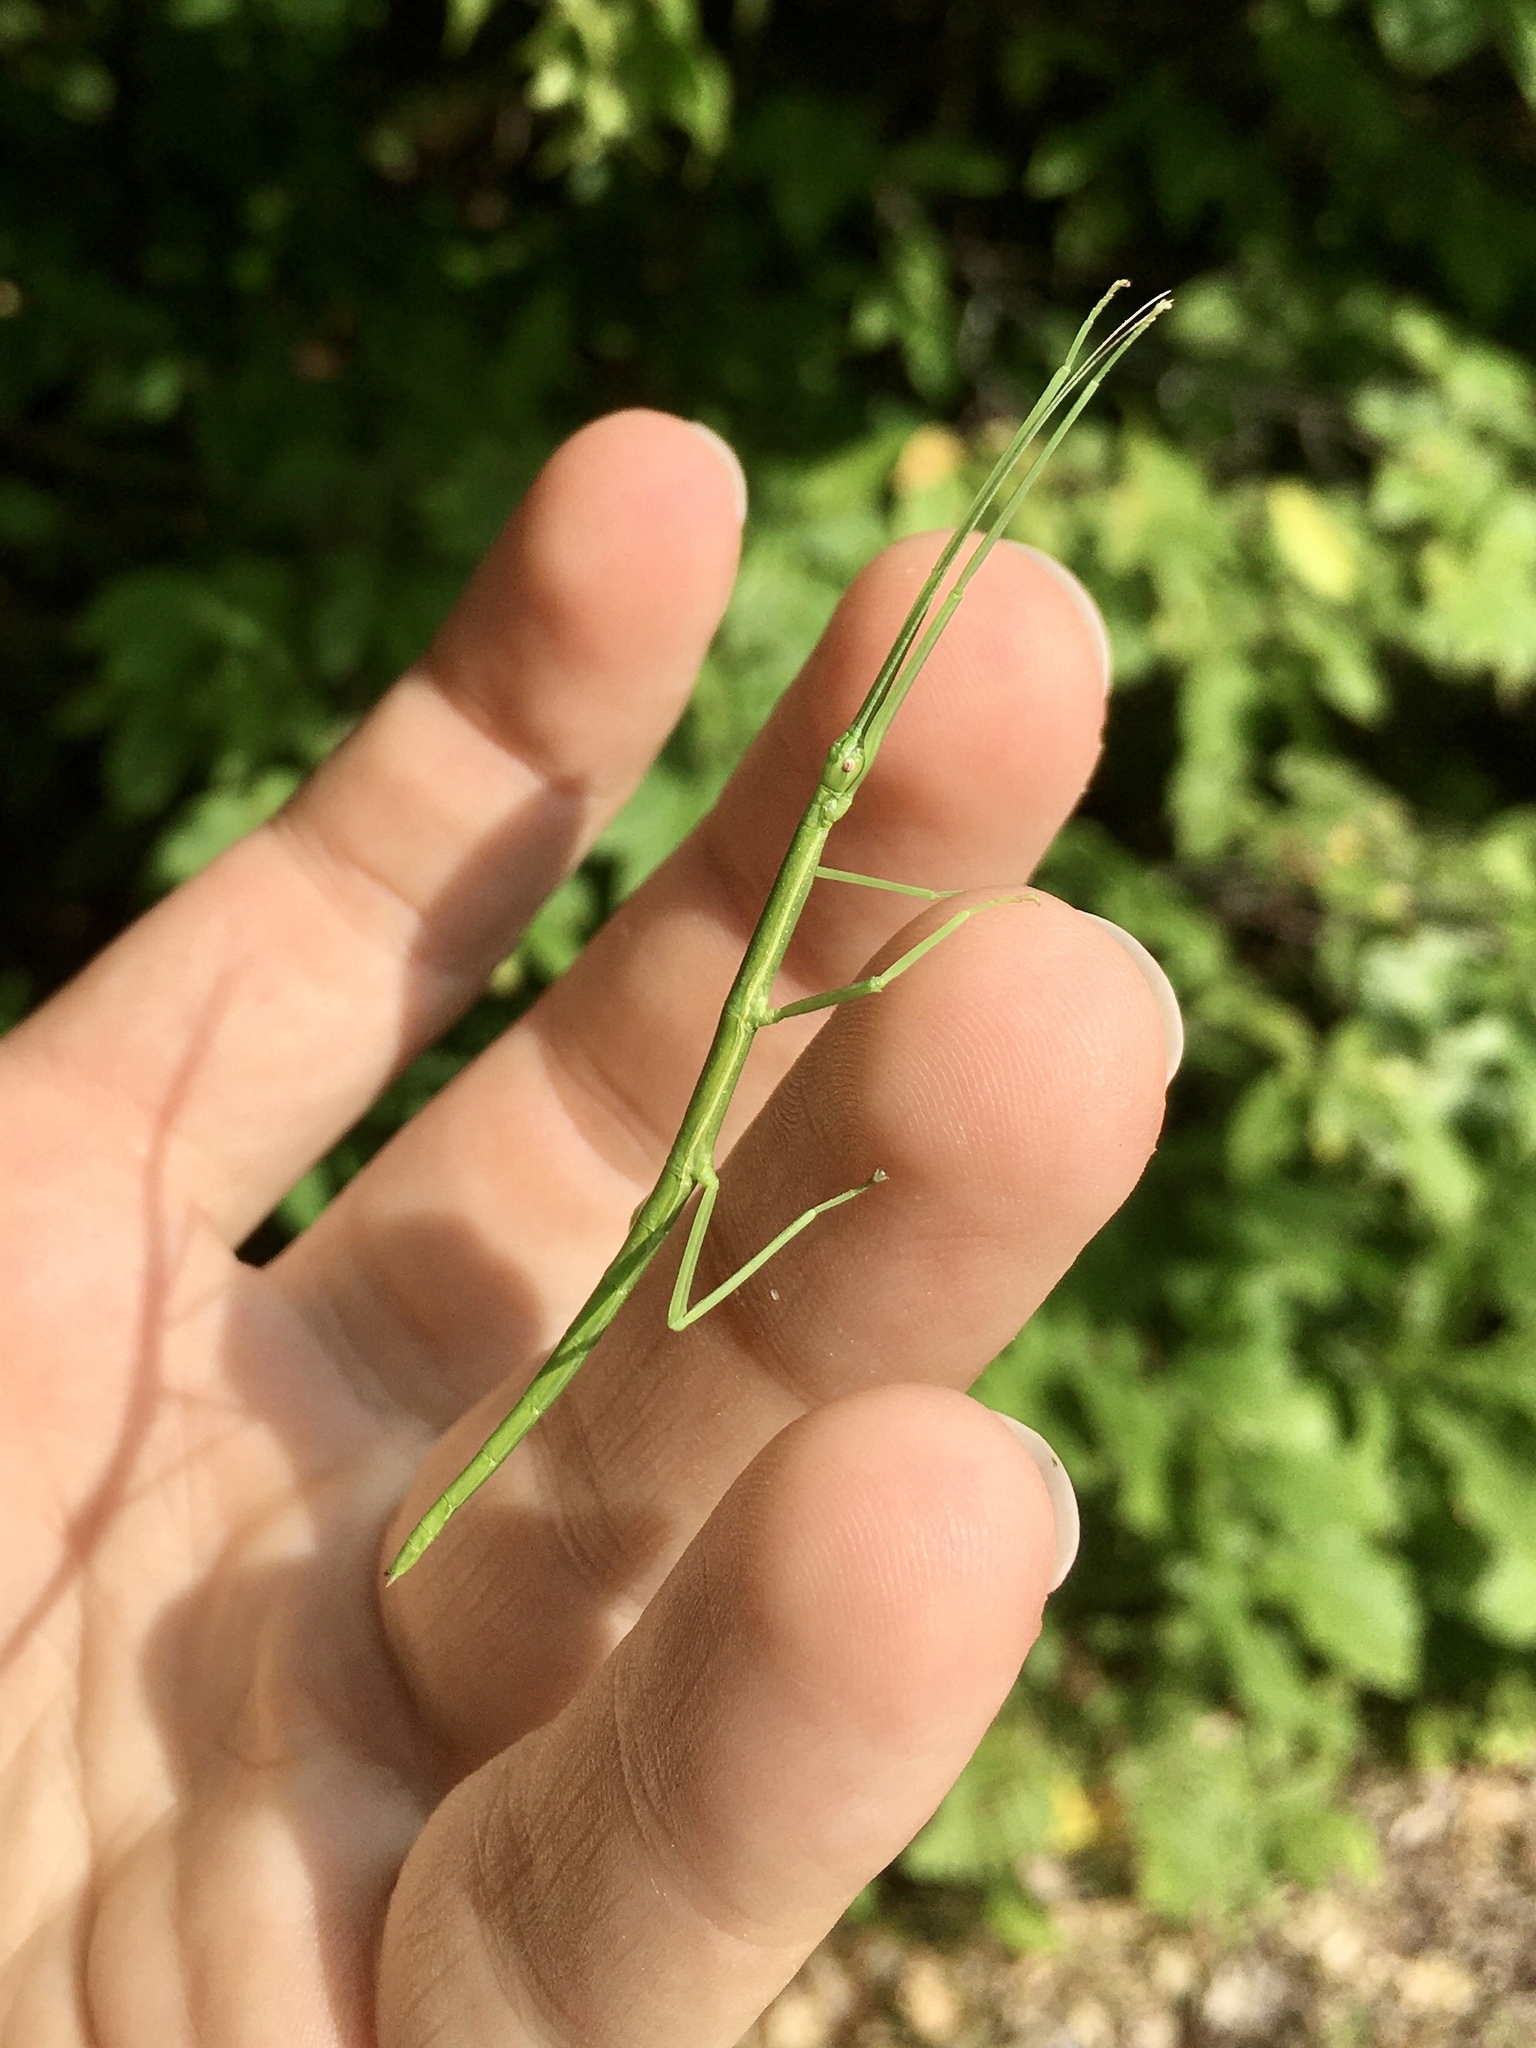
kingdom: Animalia
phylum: Arthropoda
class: Insecta
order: Phasmida
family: Diapheromeridae
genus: Diapheromera
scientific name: Diapheromera femorata
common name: Common american walkingstick
